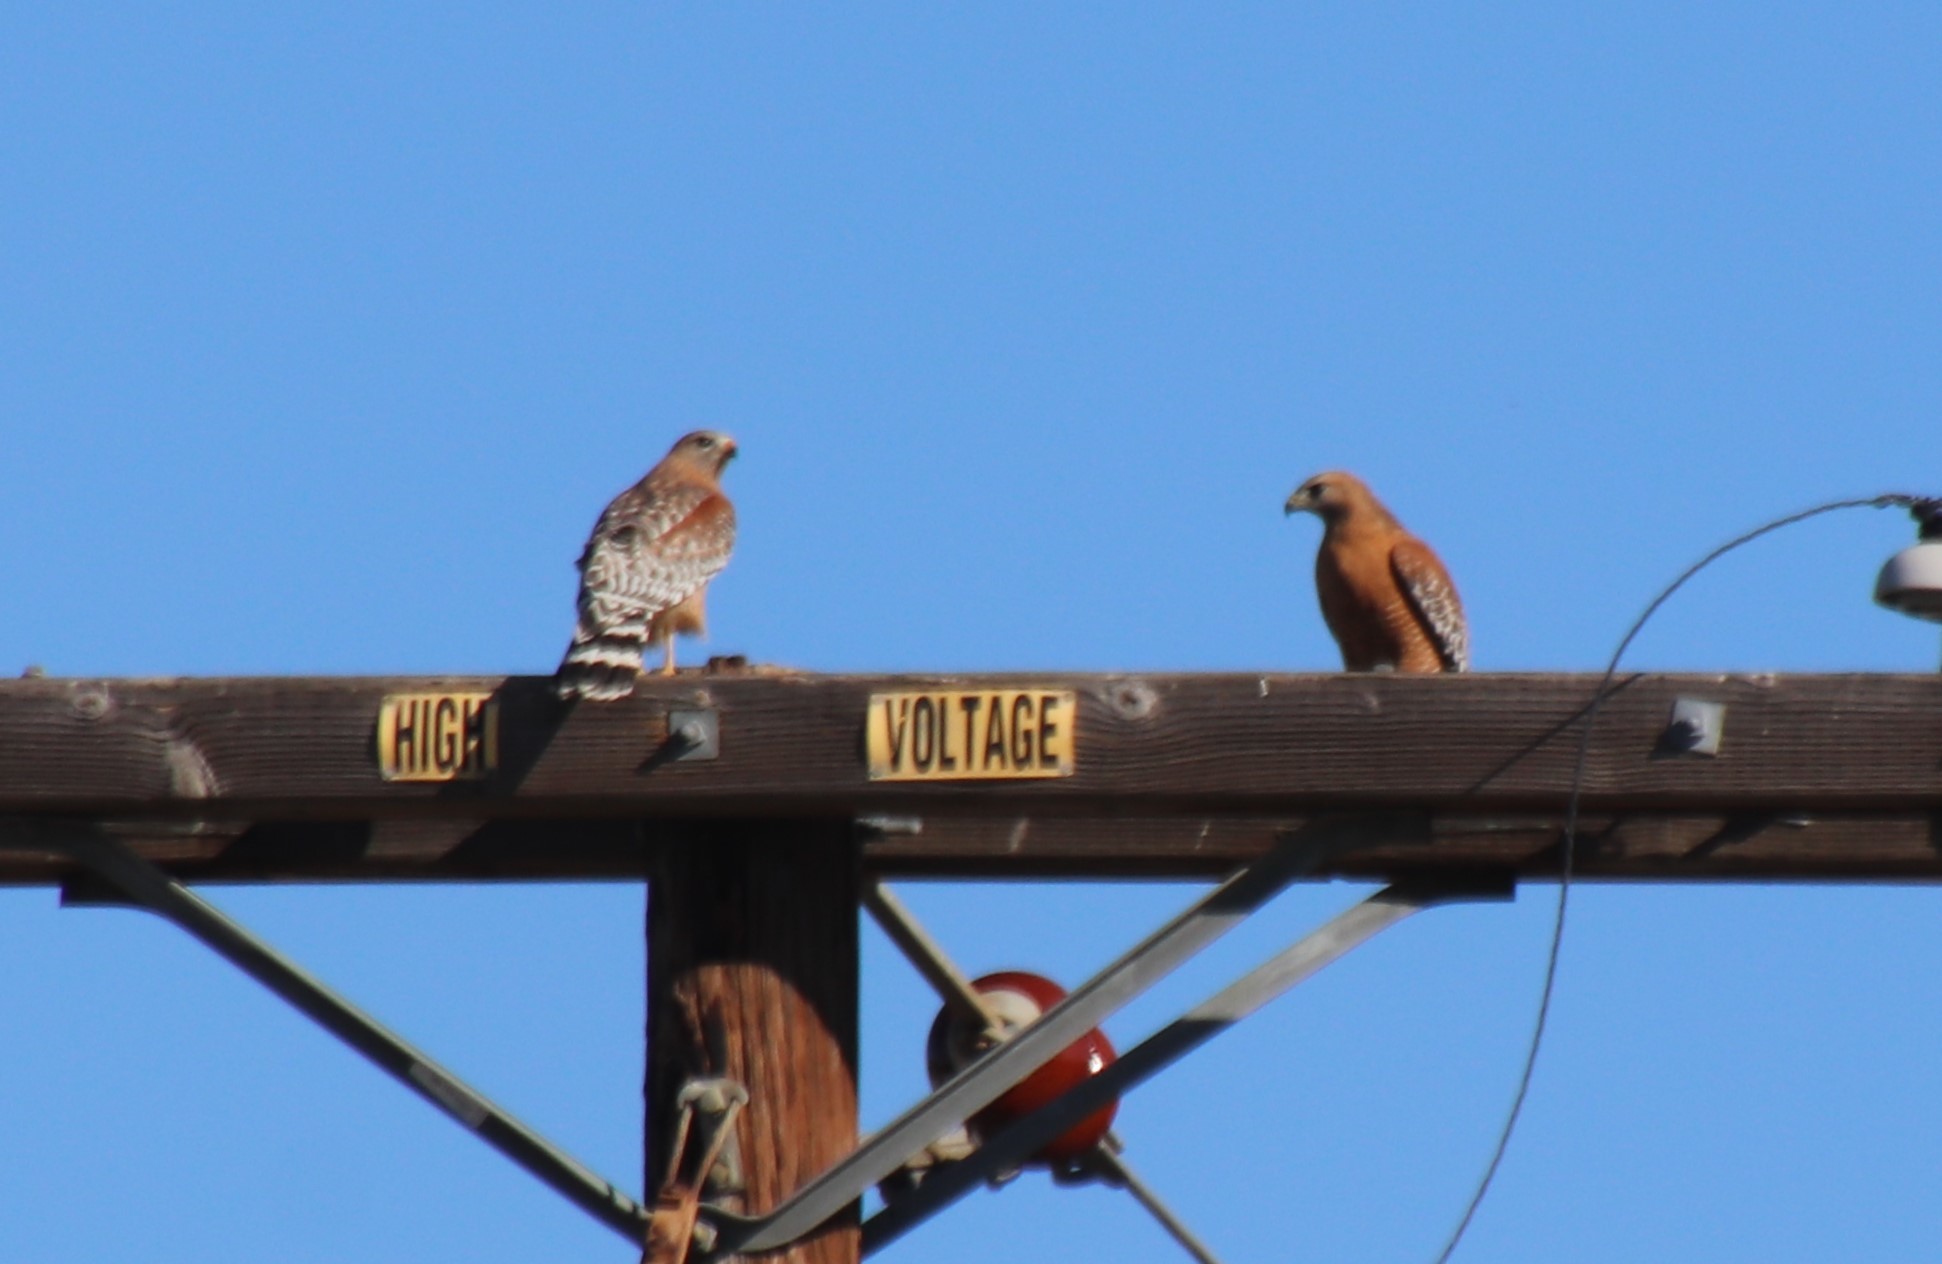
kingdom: Animalia
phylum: Chordata
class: Aves
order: Accipitriformes
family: Accipitridae
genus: Buteo
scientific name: Buteo lineatus
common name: Red-shouldered hawk
